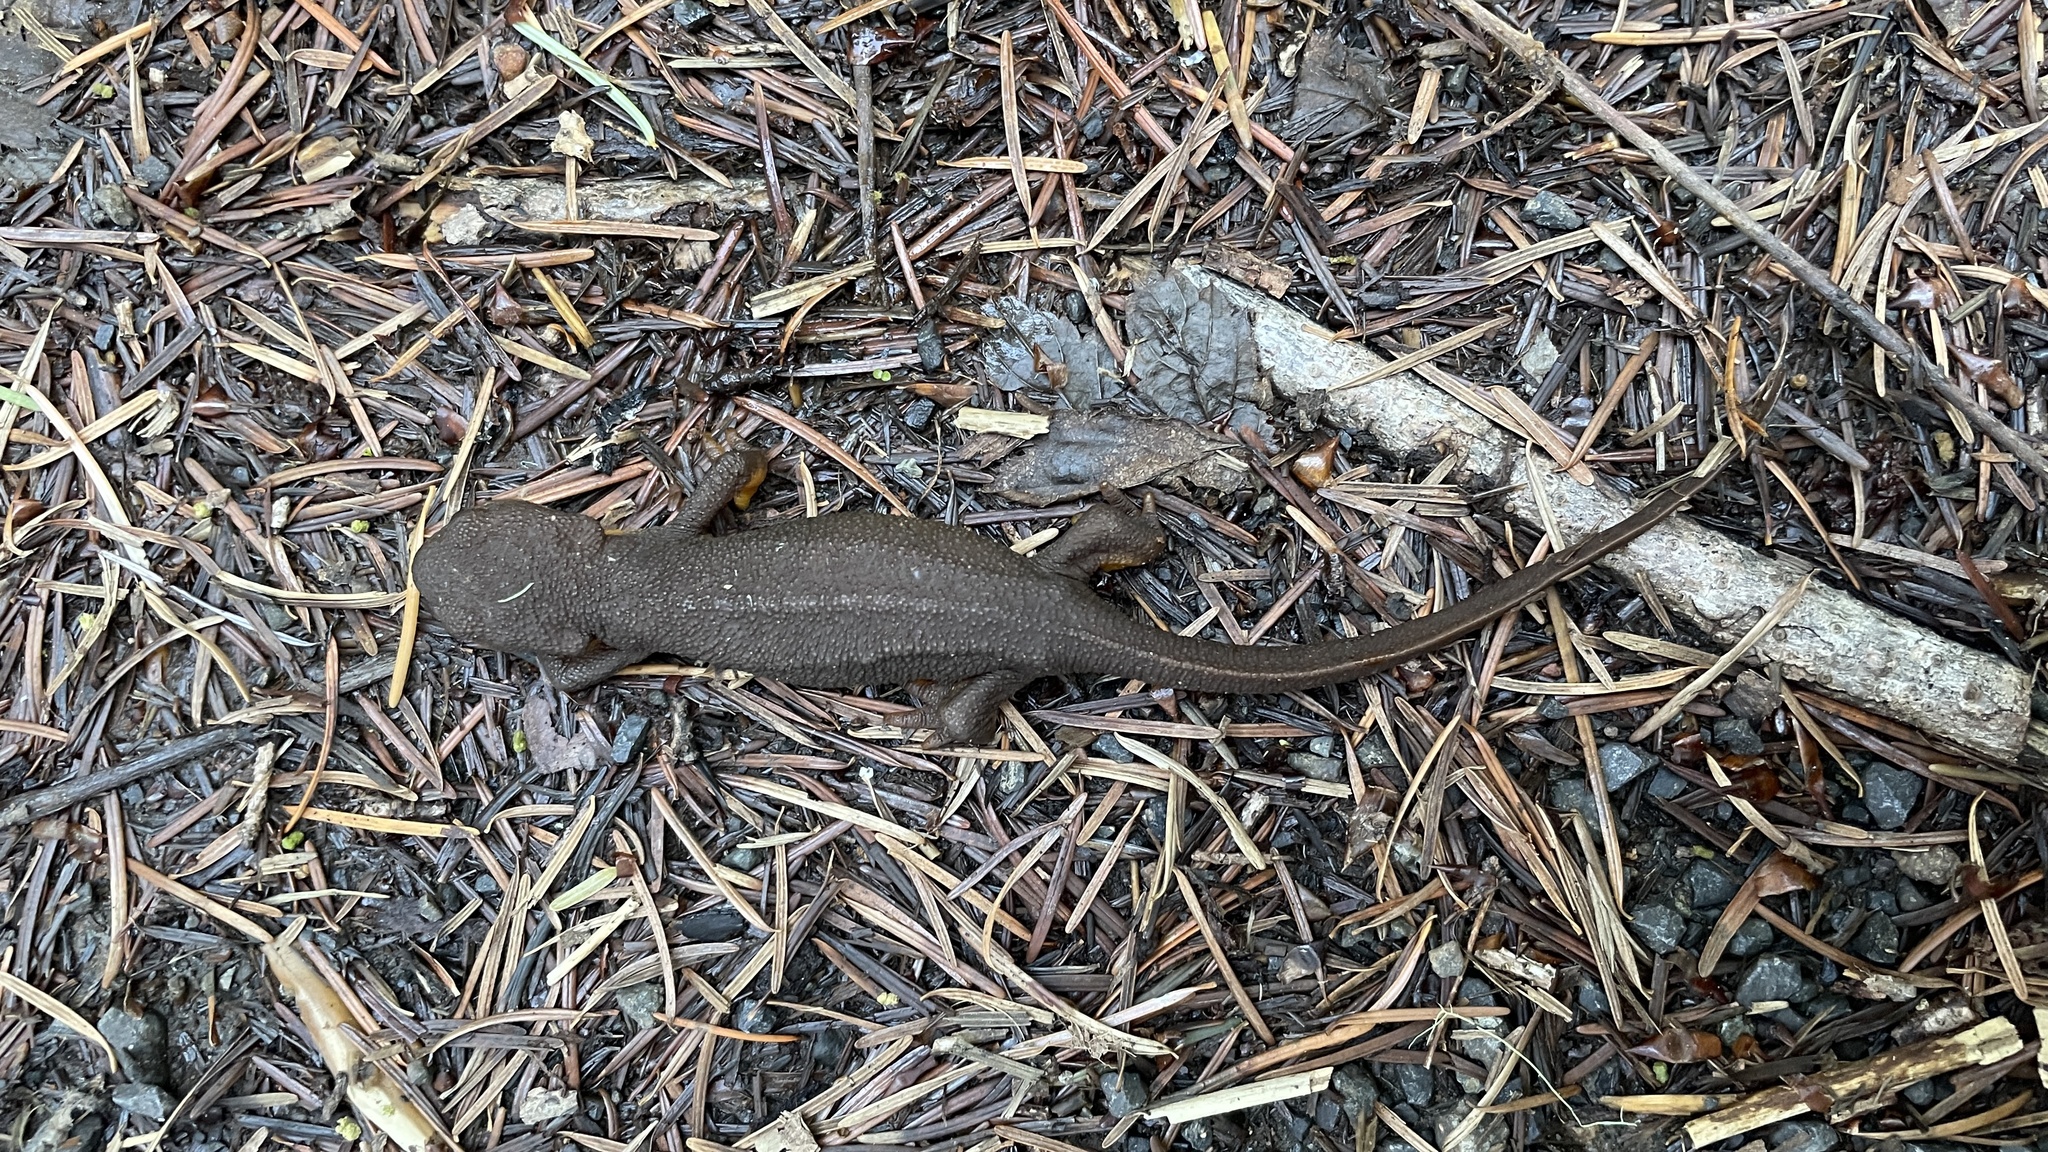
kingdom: Animalia
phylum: Chordata
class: Amphibia
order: Caudata
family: Salamandridae
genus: Taricha
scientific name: Taricha granulosa
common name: Roughskin newt
